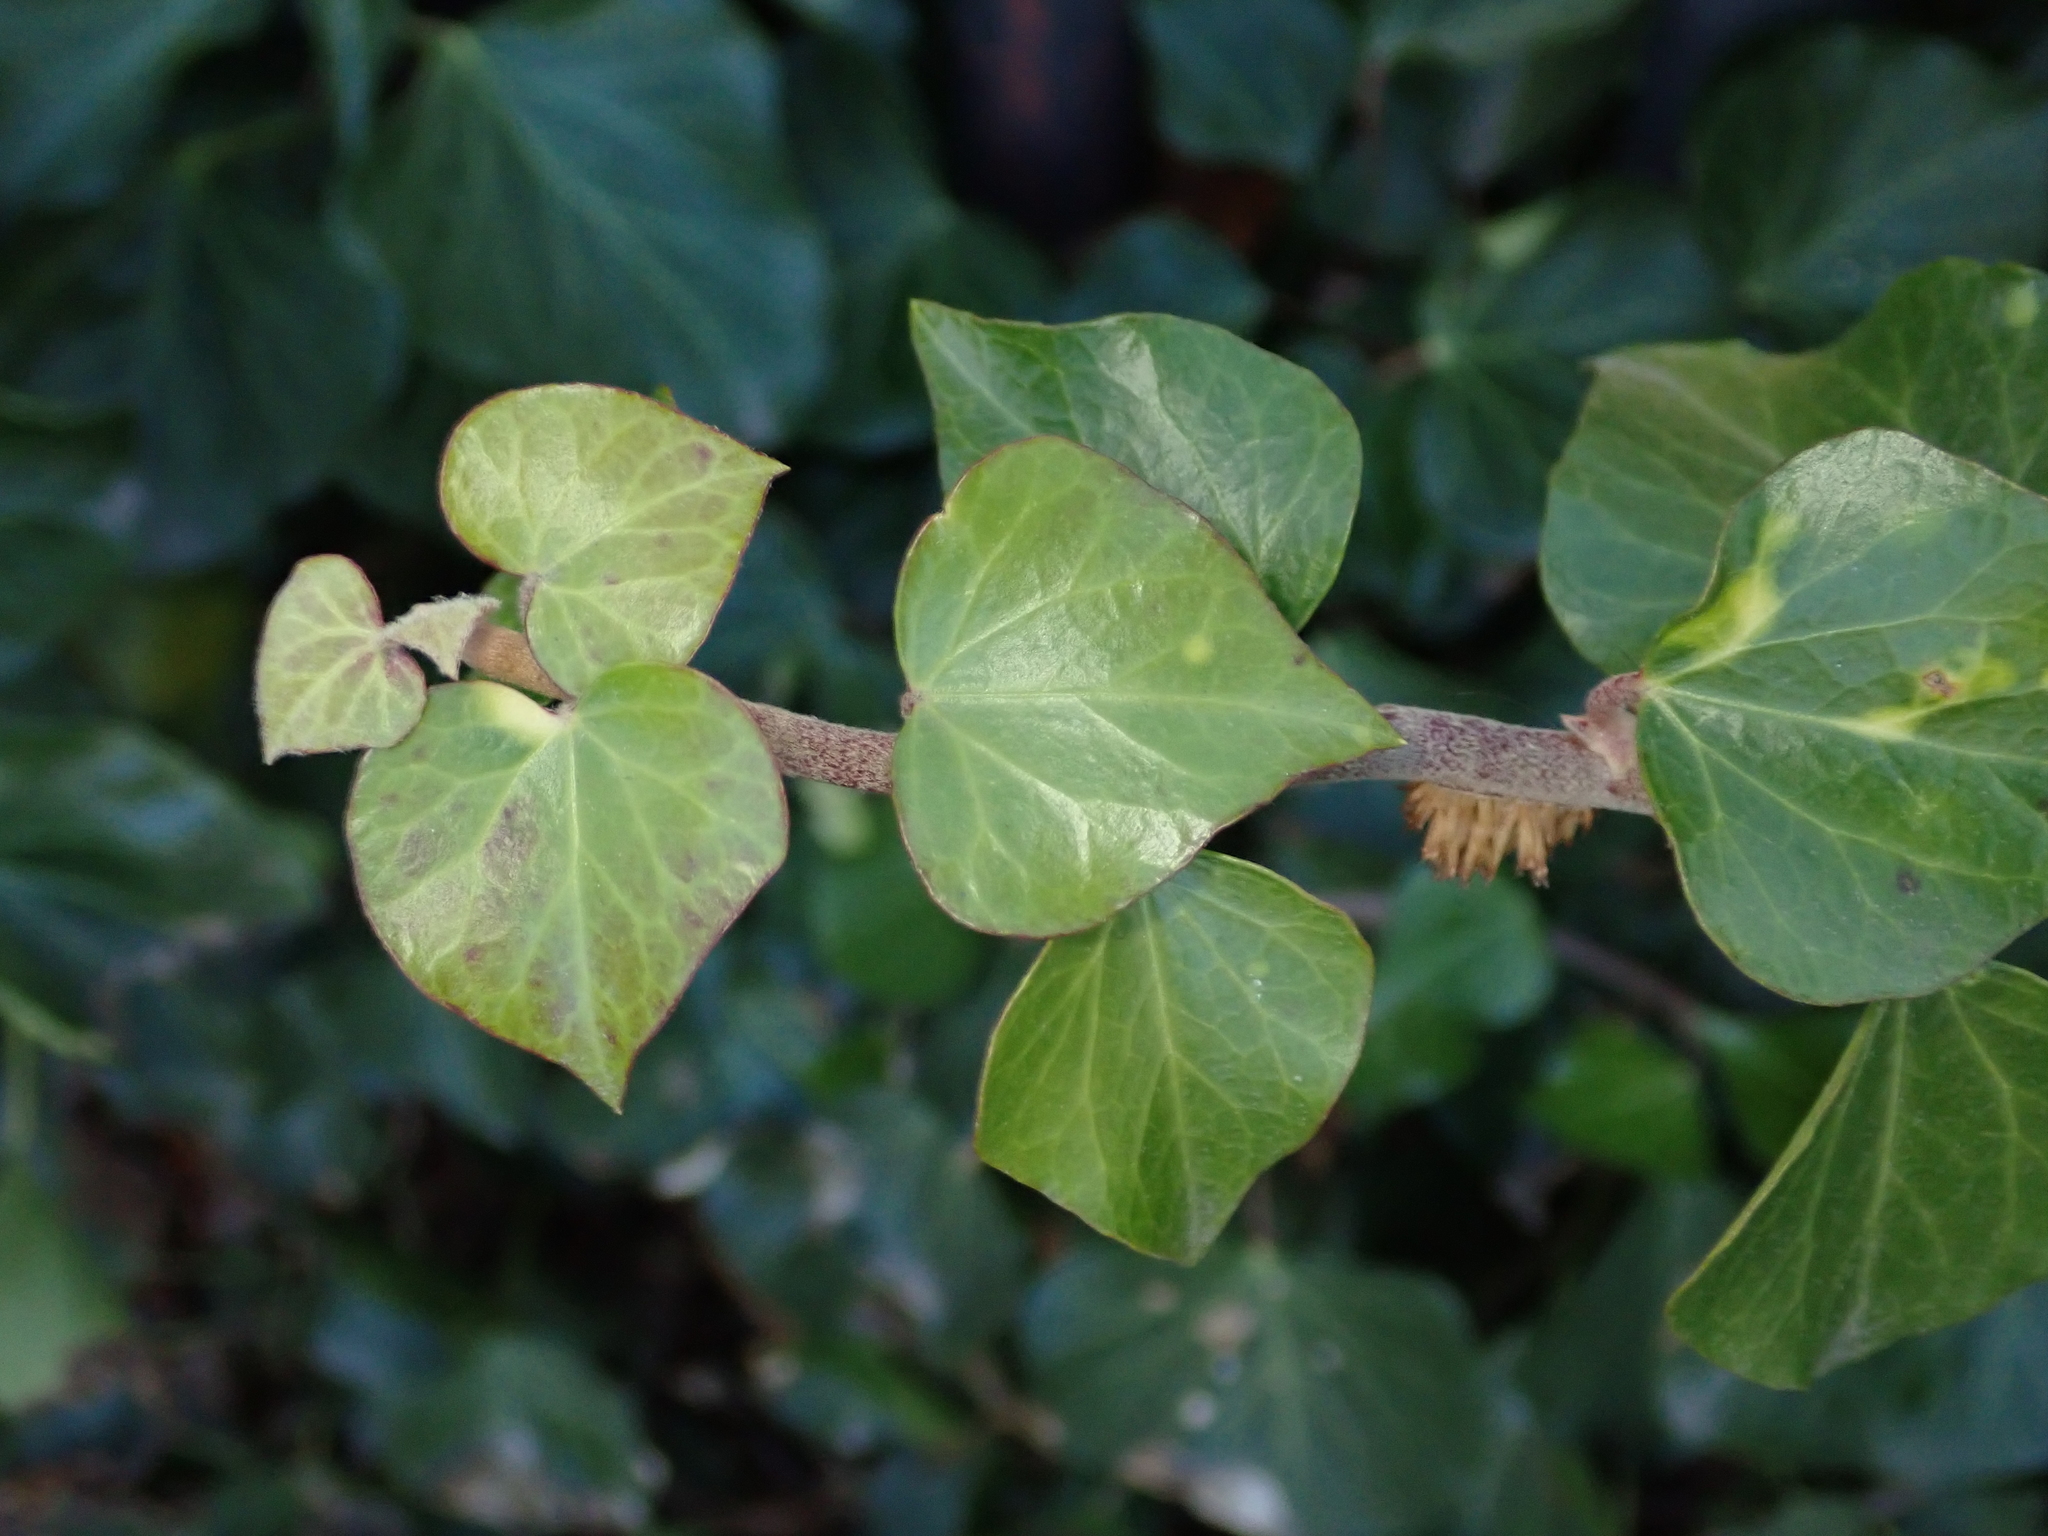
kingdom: Plantae
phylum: Tracheophyta
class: Magnoliopsida
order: Apiales
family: Araliaceae
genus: Hedera
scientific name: Hedera helix
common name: Ivy
